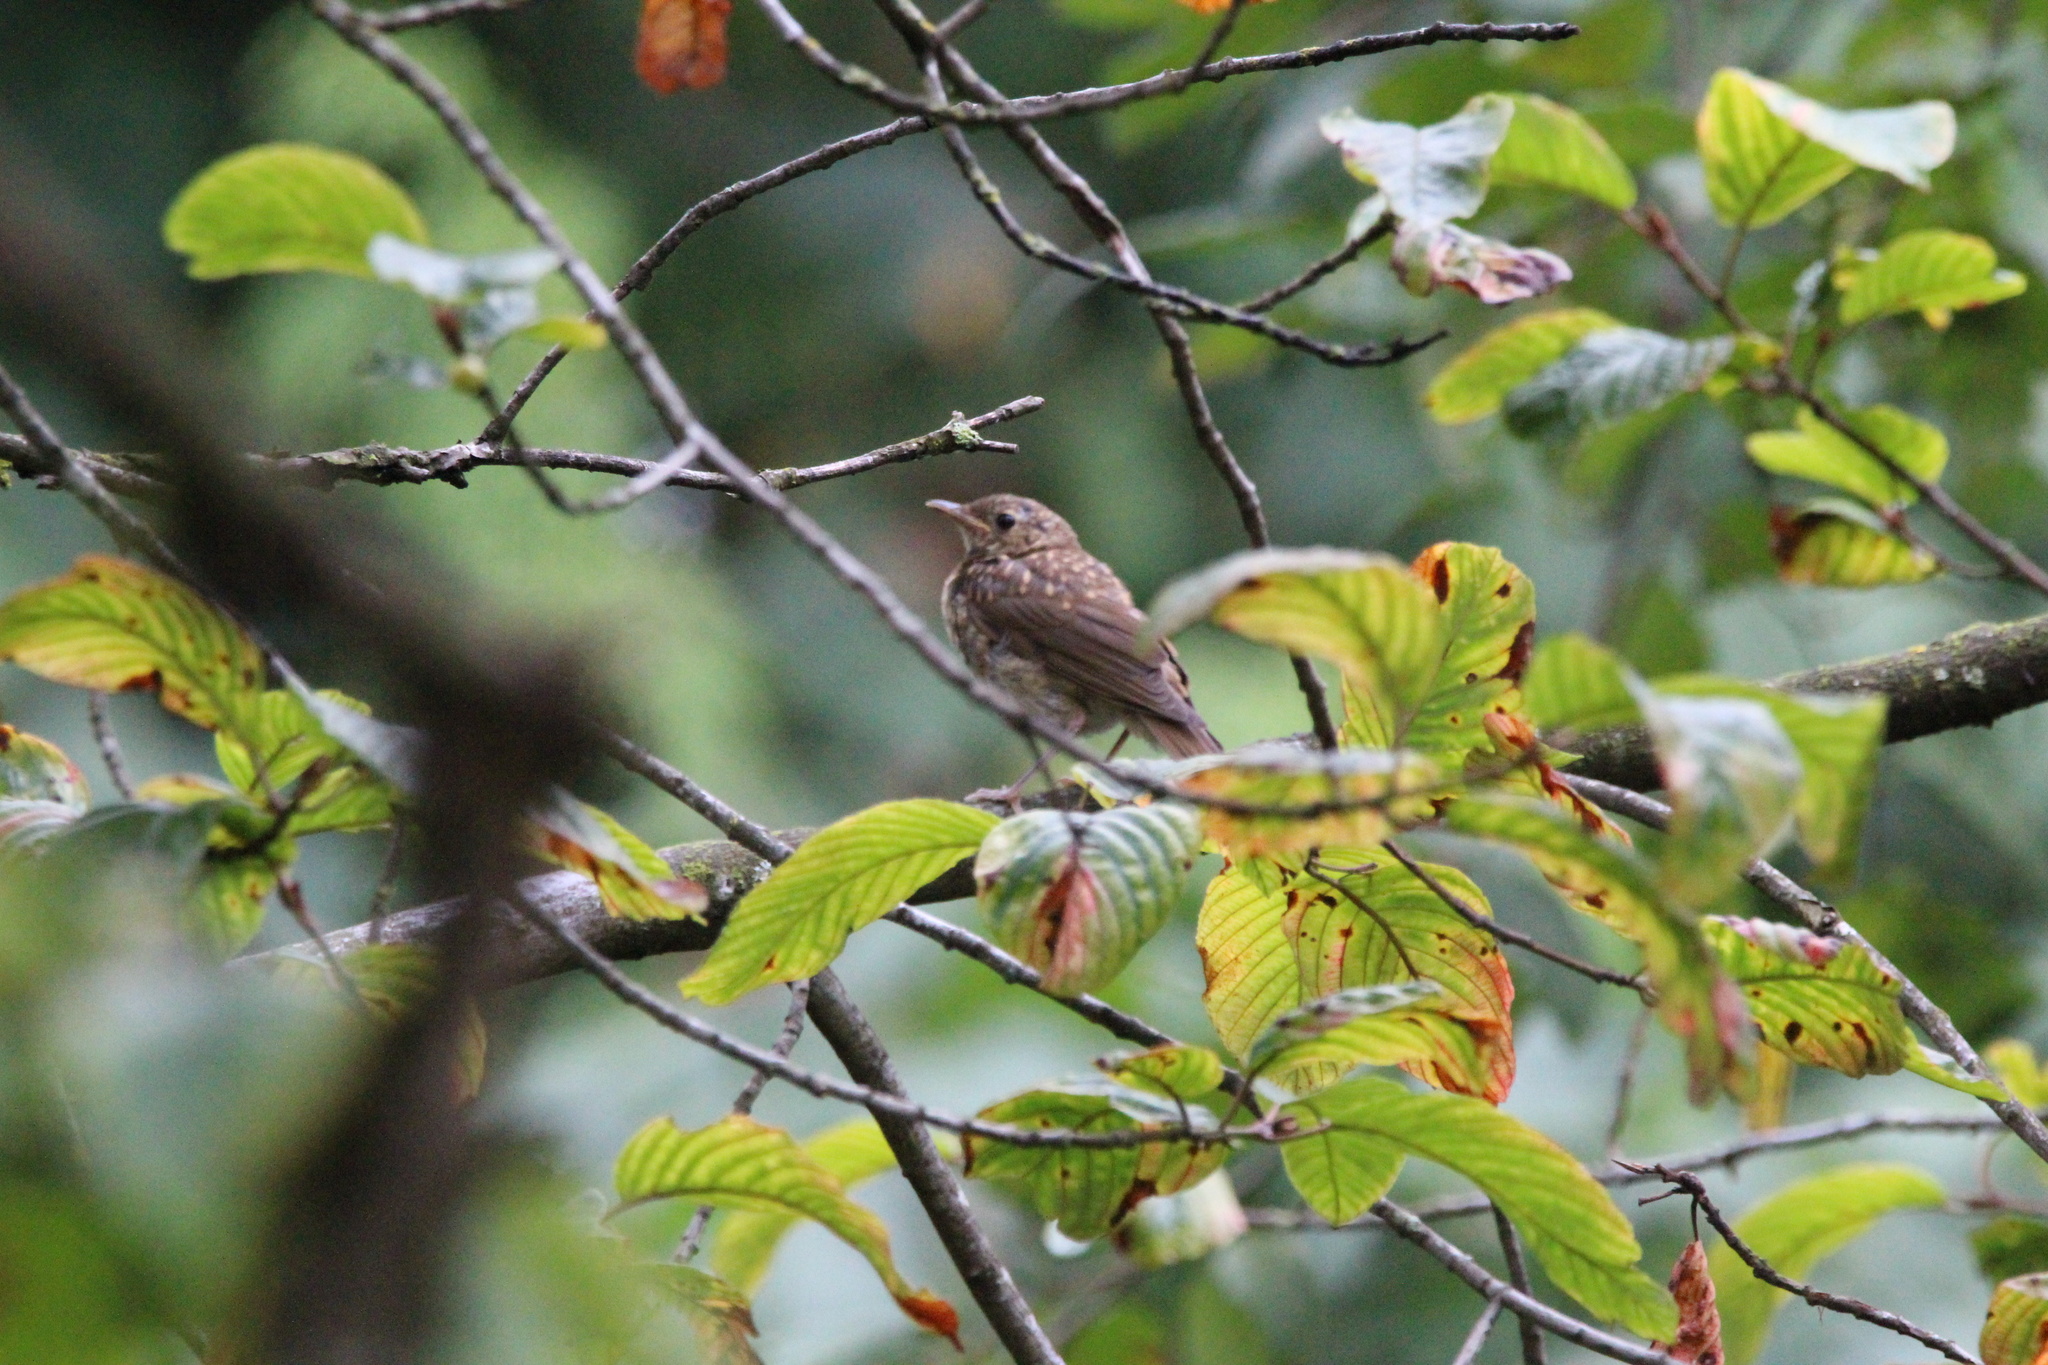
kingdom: Animalia
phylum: Chordata
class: Aves
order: Passeriformes
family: Turdidae
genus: Catharus
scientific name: Catharus ustulatus
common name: Swainson's thrush
